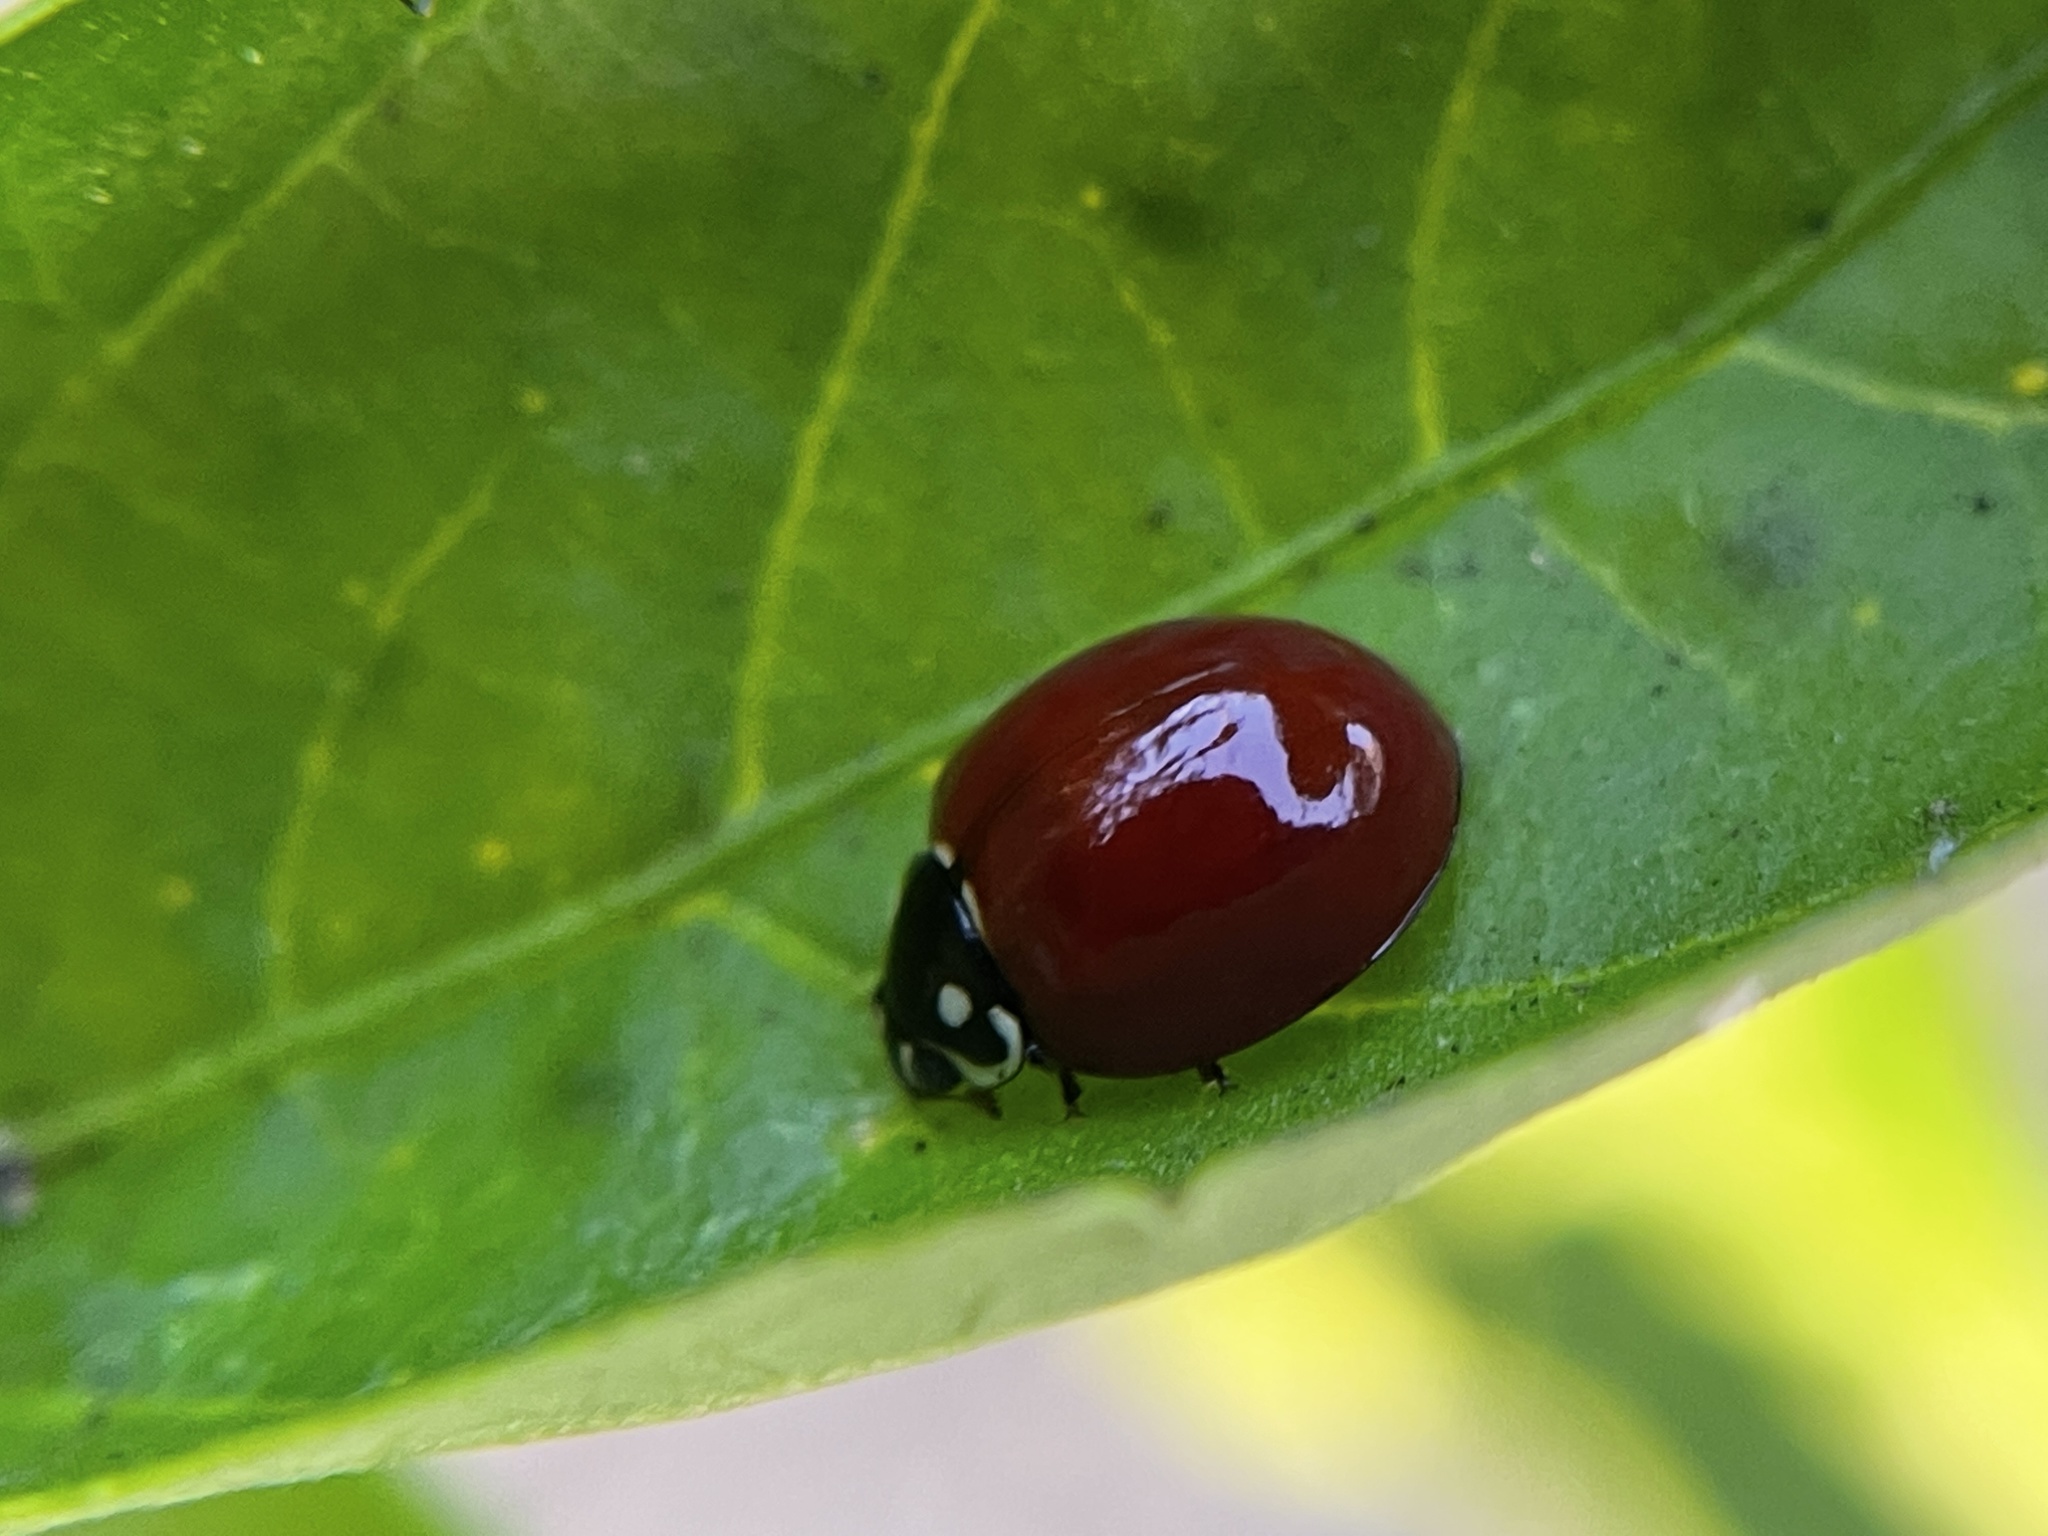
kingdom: Animalia
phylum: Arthropoda
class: Insecta
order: Coleoptera
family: Coccinellidae
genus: Cycloneda
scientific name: Cycloneda sanguinea
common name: Ladybird beetle
